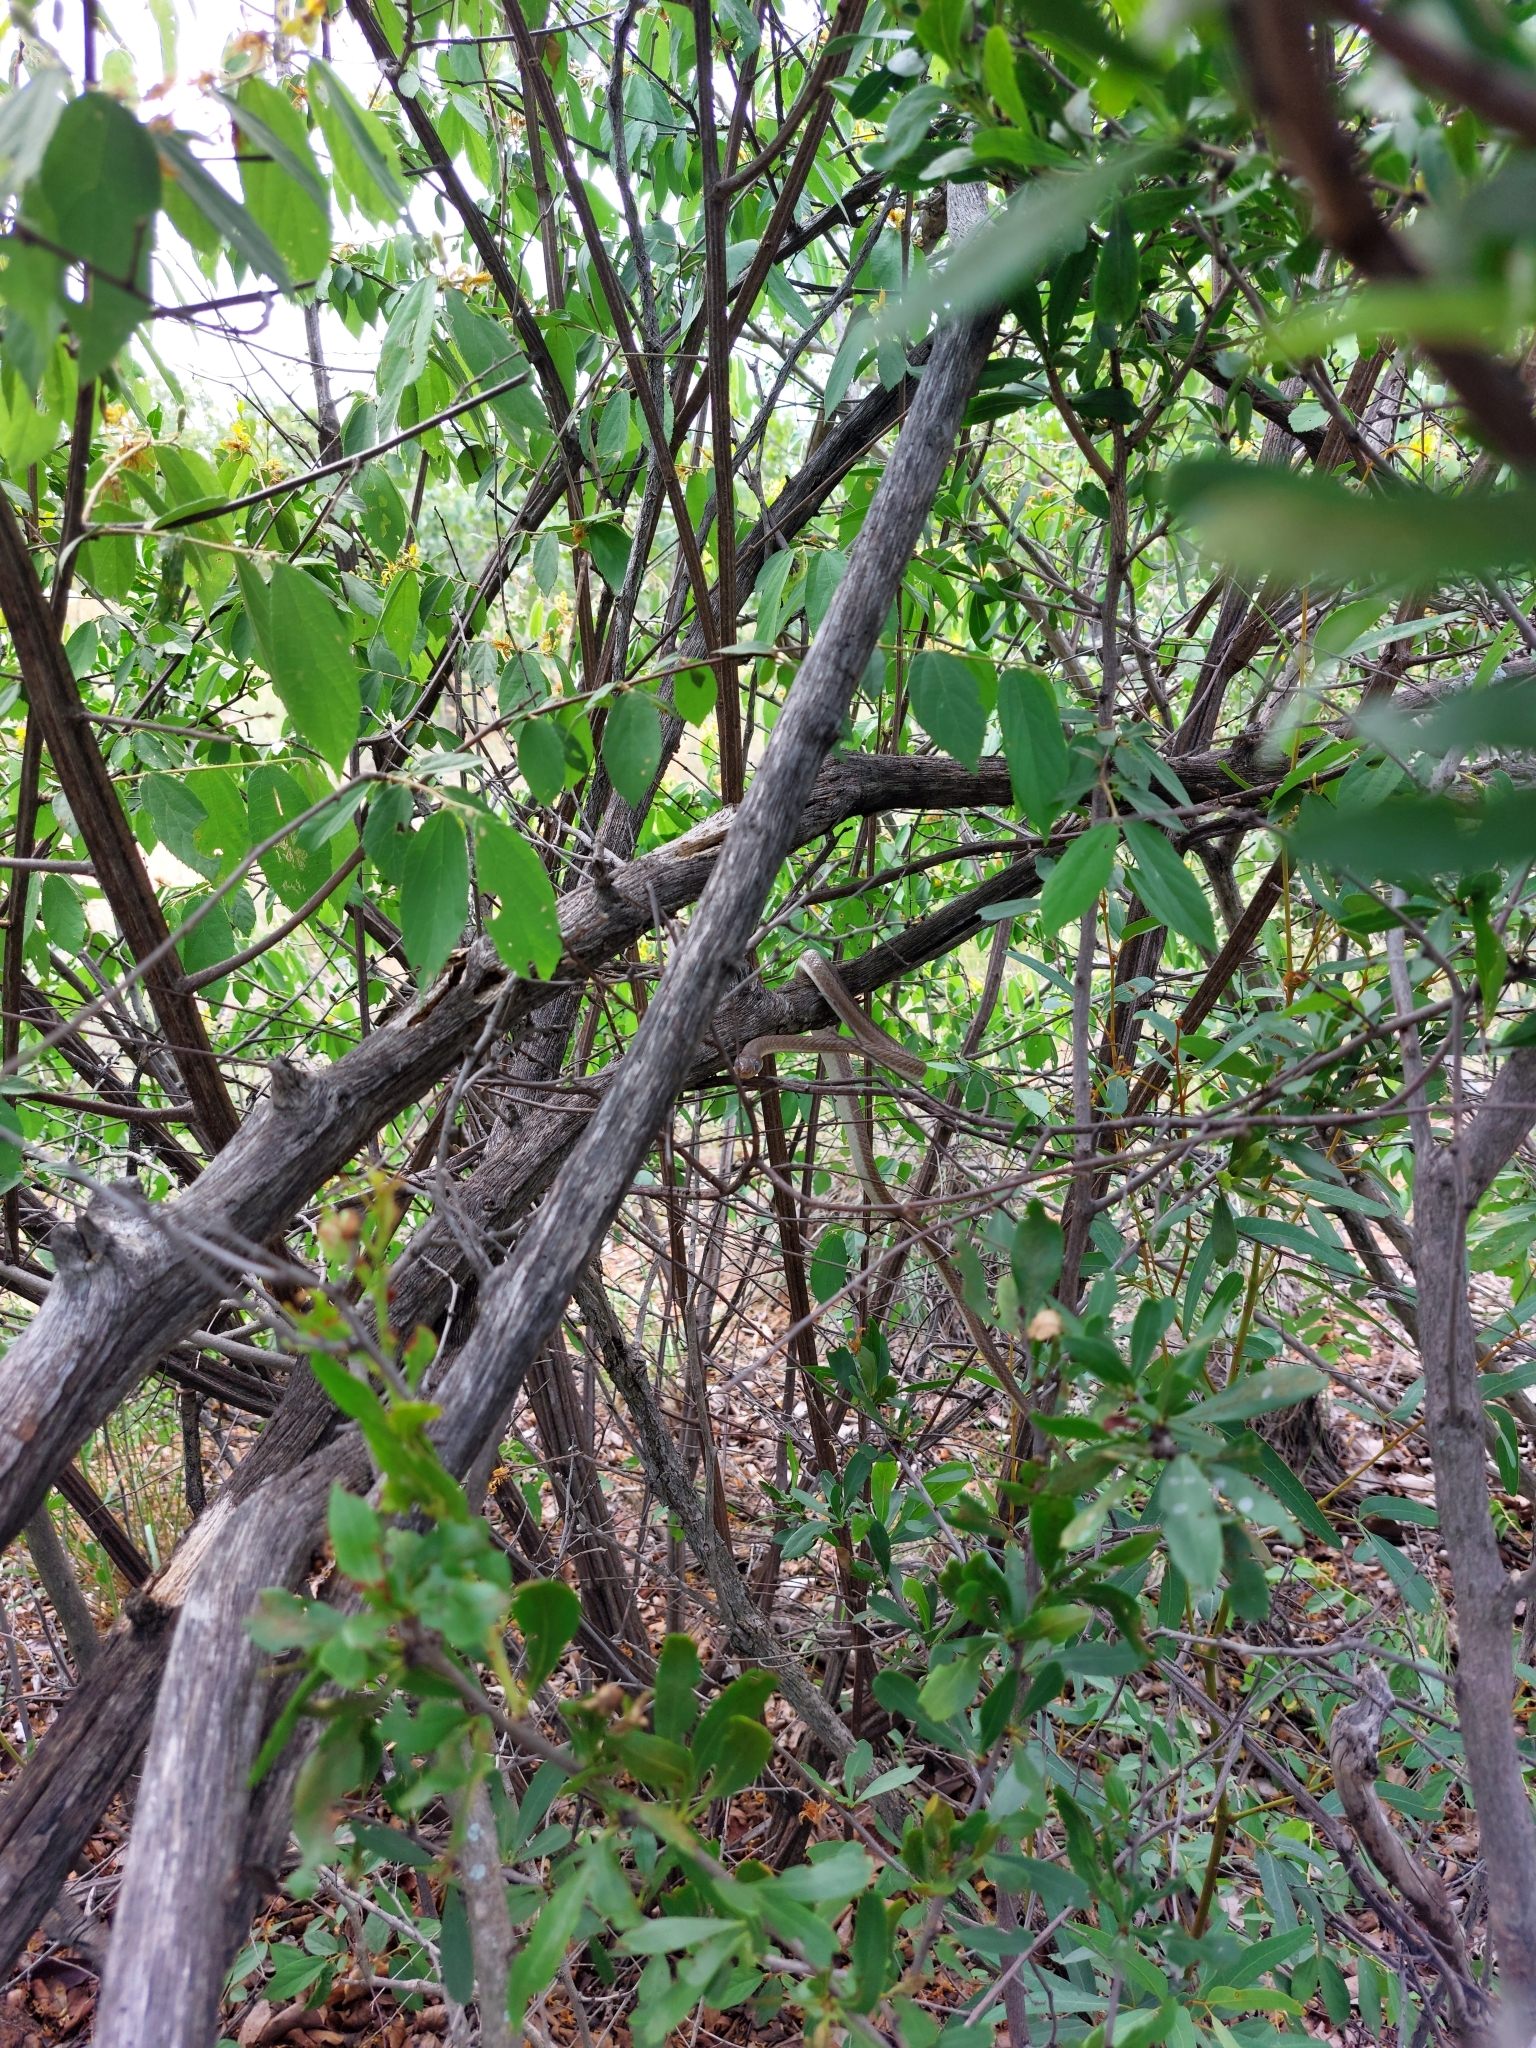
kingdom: Animalia
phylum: Chordata
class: Squamata
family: Psammophiidae
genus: Psammophis
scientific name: Psammophis brevirostris
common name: Short-snouted grass snake
